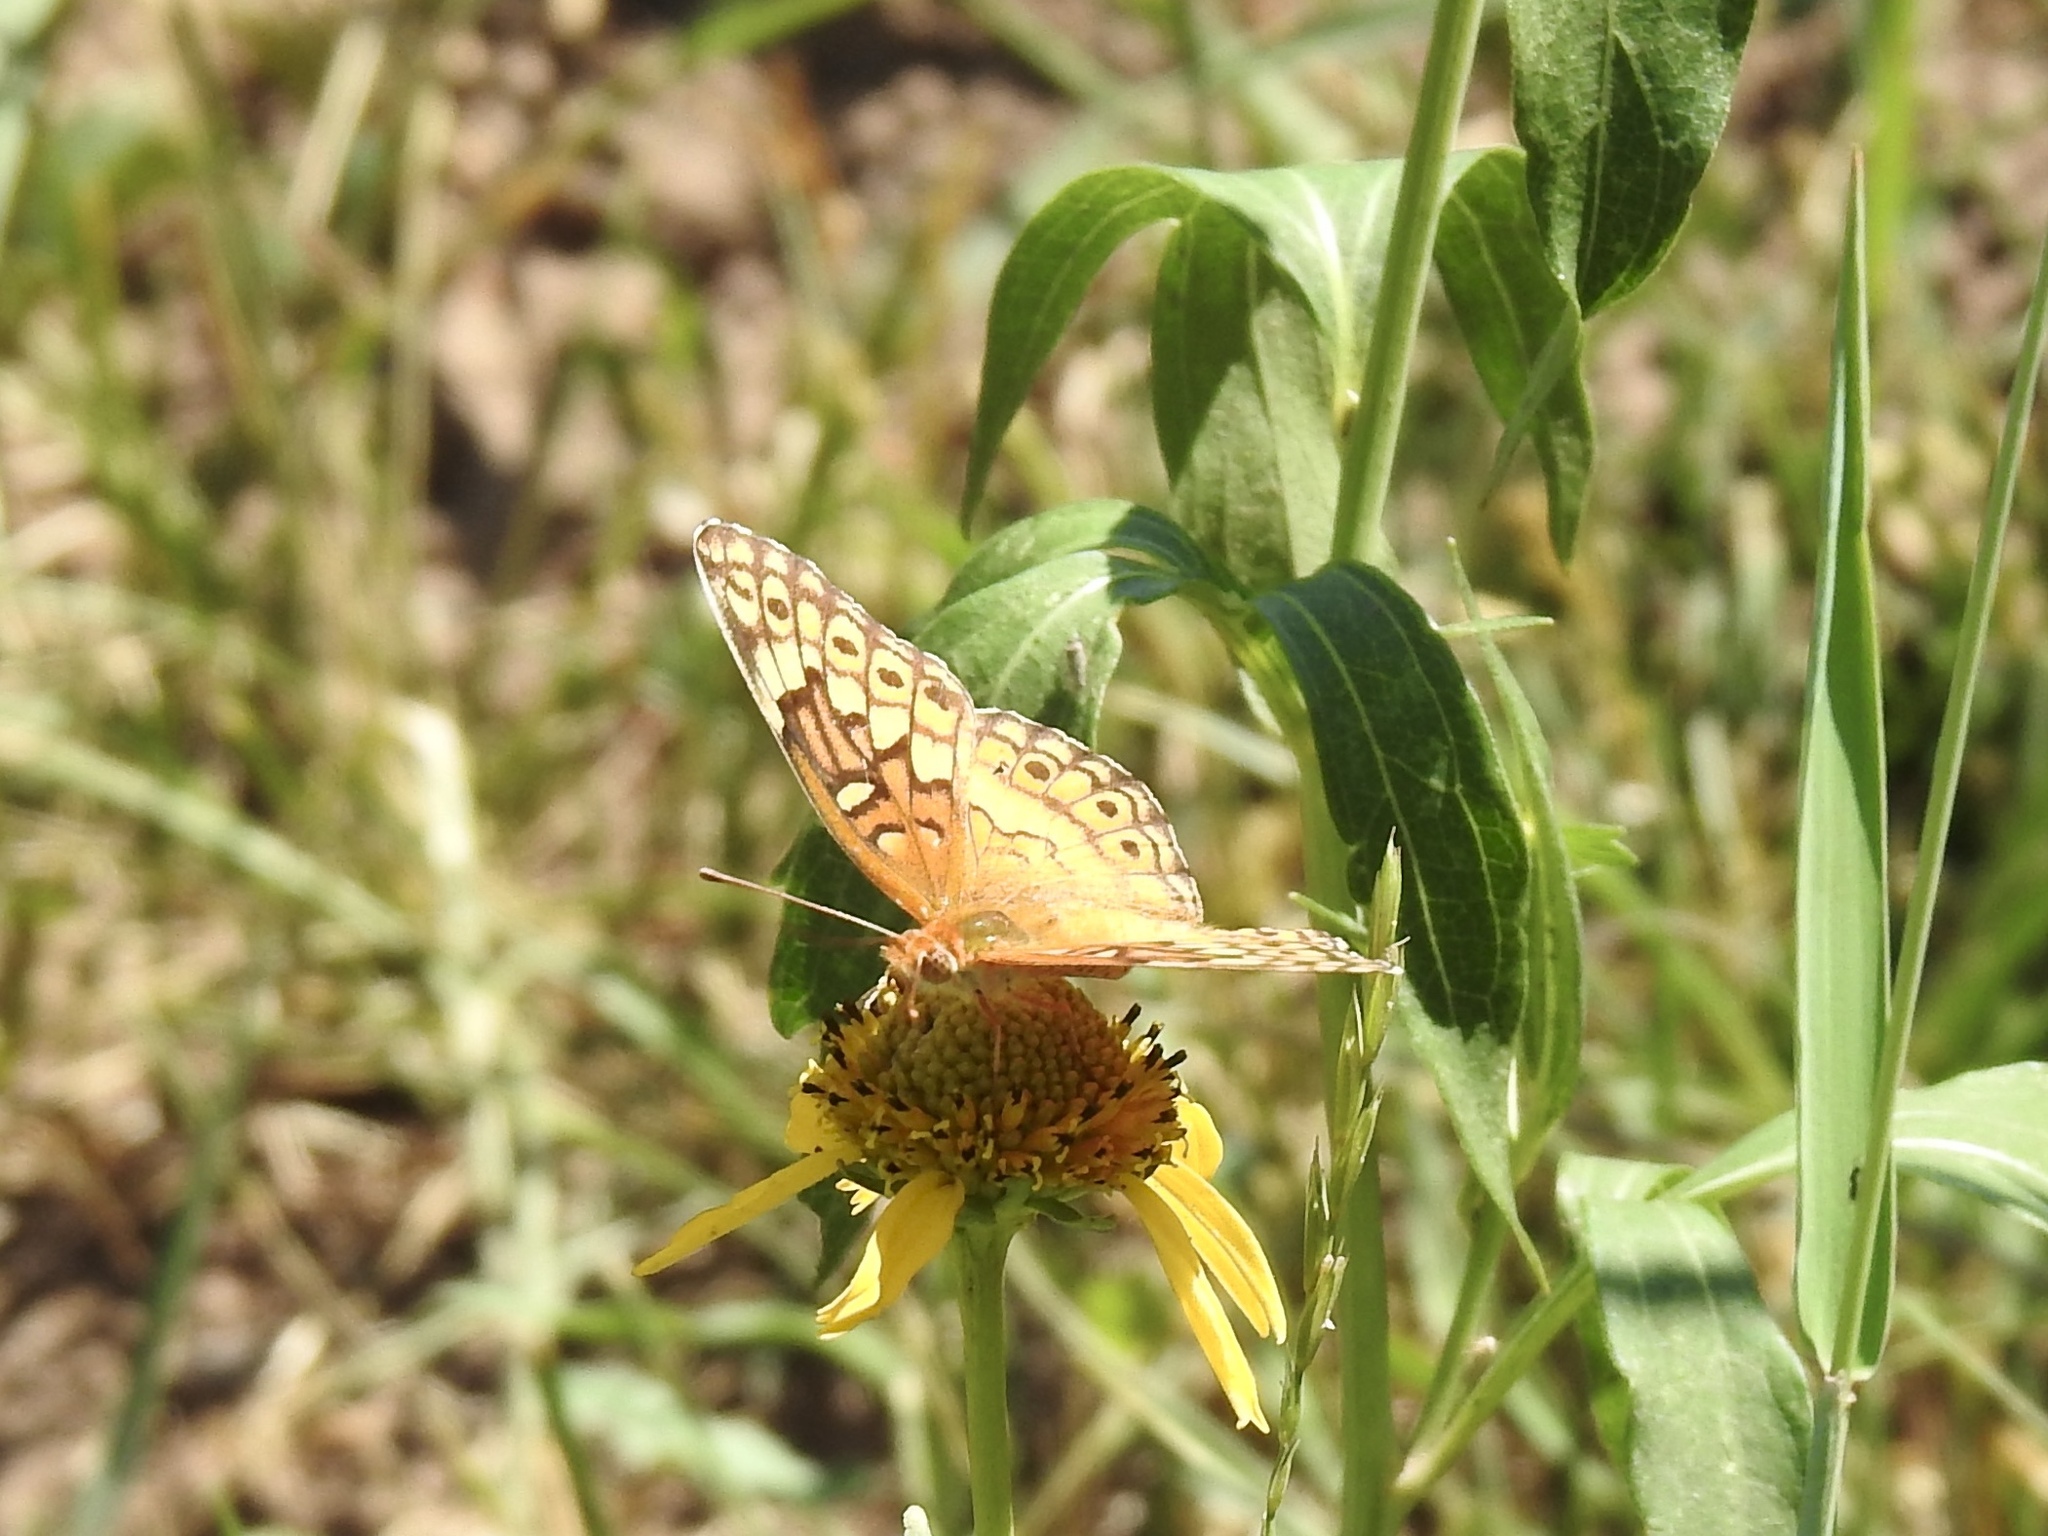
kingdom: Animalia
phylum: Arthropoda
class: Insecta
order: Lepidoptera
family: Nymphalidae
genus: Euptoieta
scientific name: Euptoieta claudia
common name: Variegated fritillary
